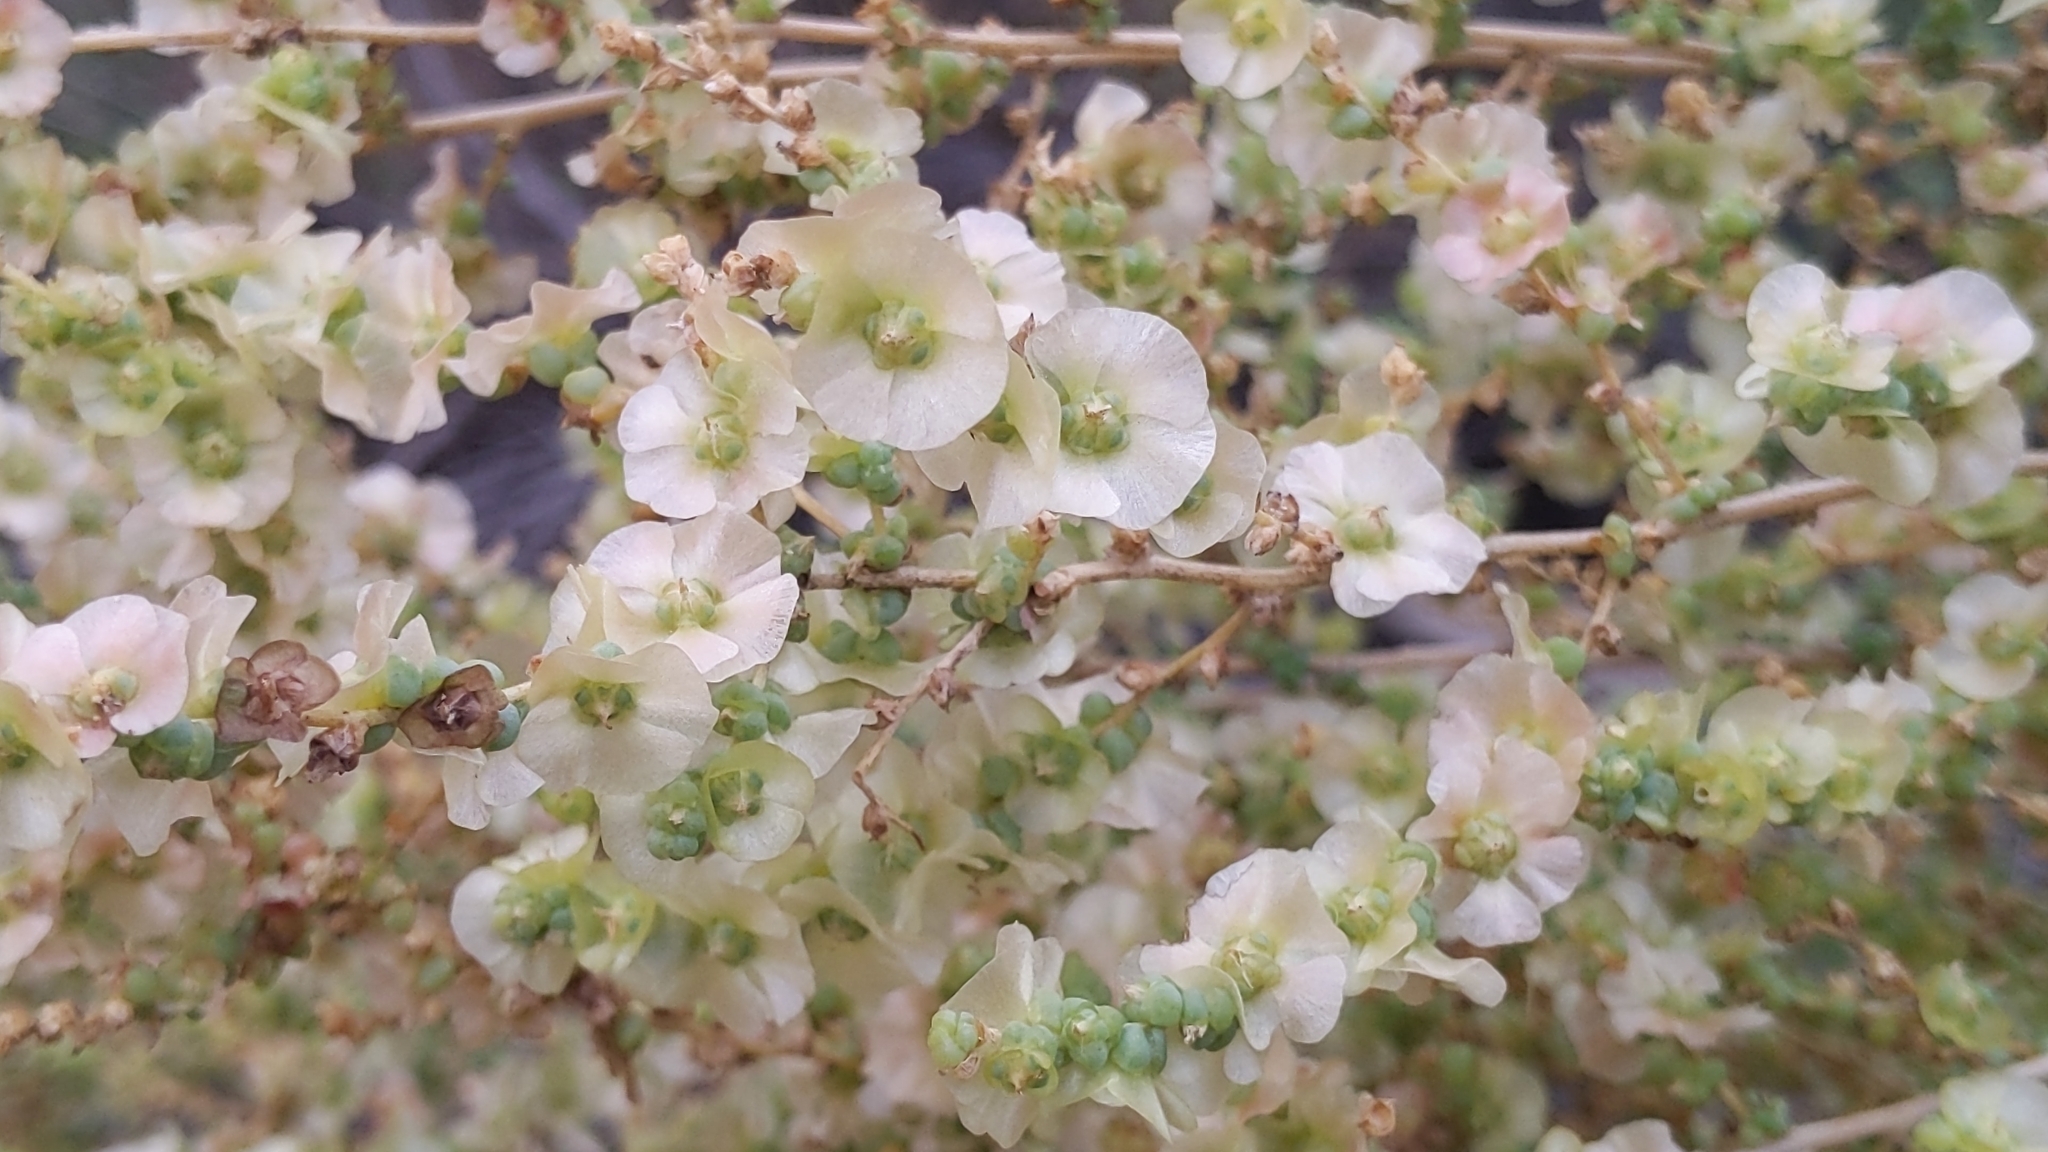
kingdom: Plantae
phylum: Tracheophyta
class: Magnoliopsida
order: Caryophyllales
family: Amaranthaceae
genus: Nitrosalsola
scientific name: Nitrosalsola vermiculata
